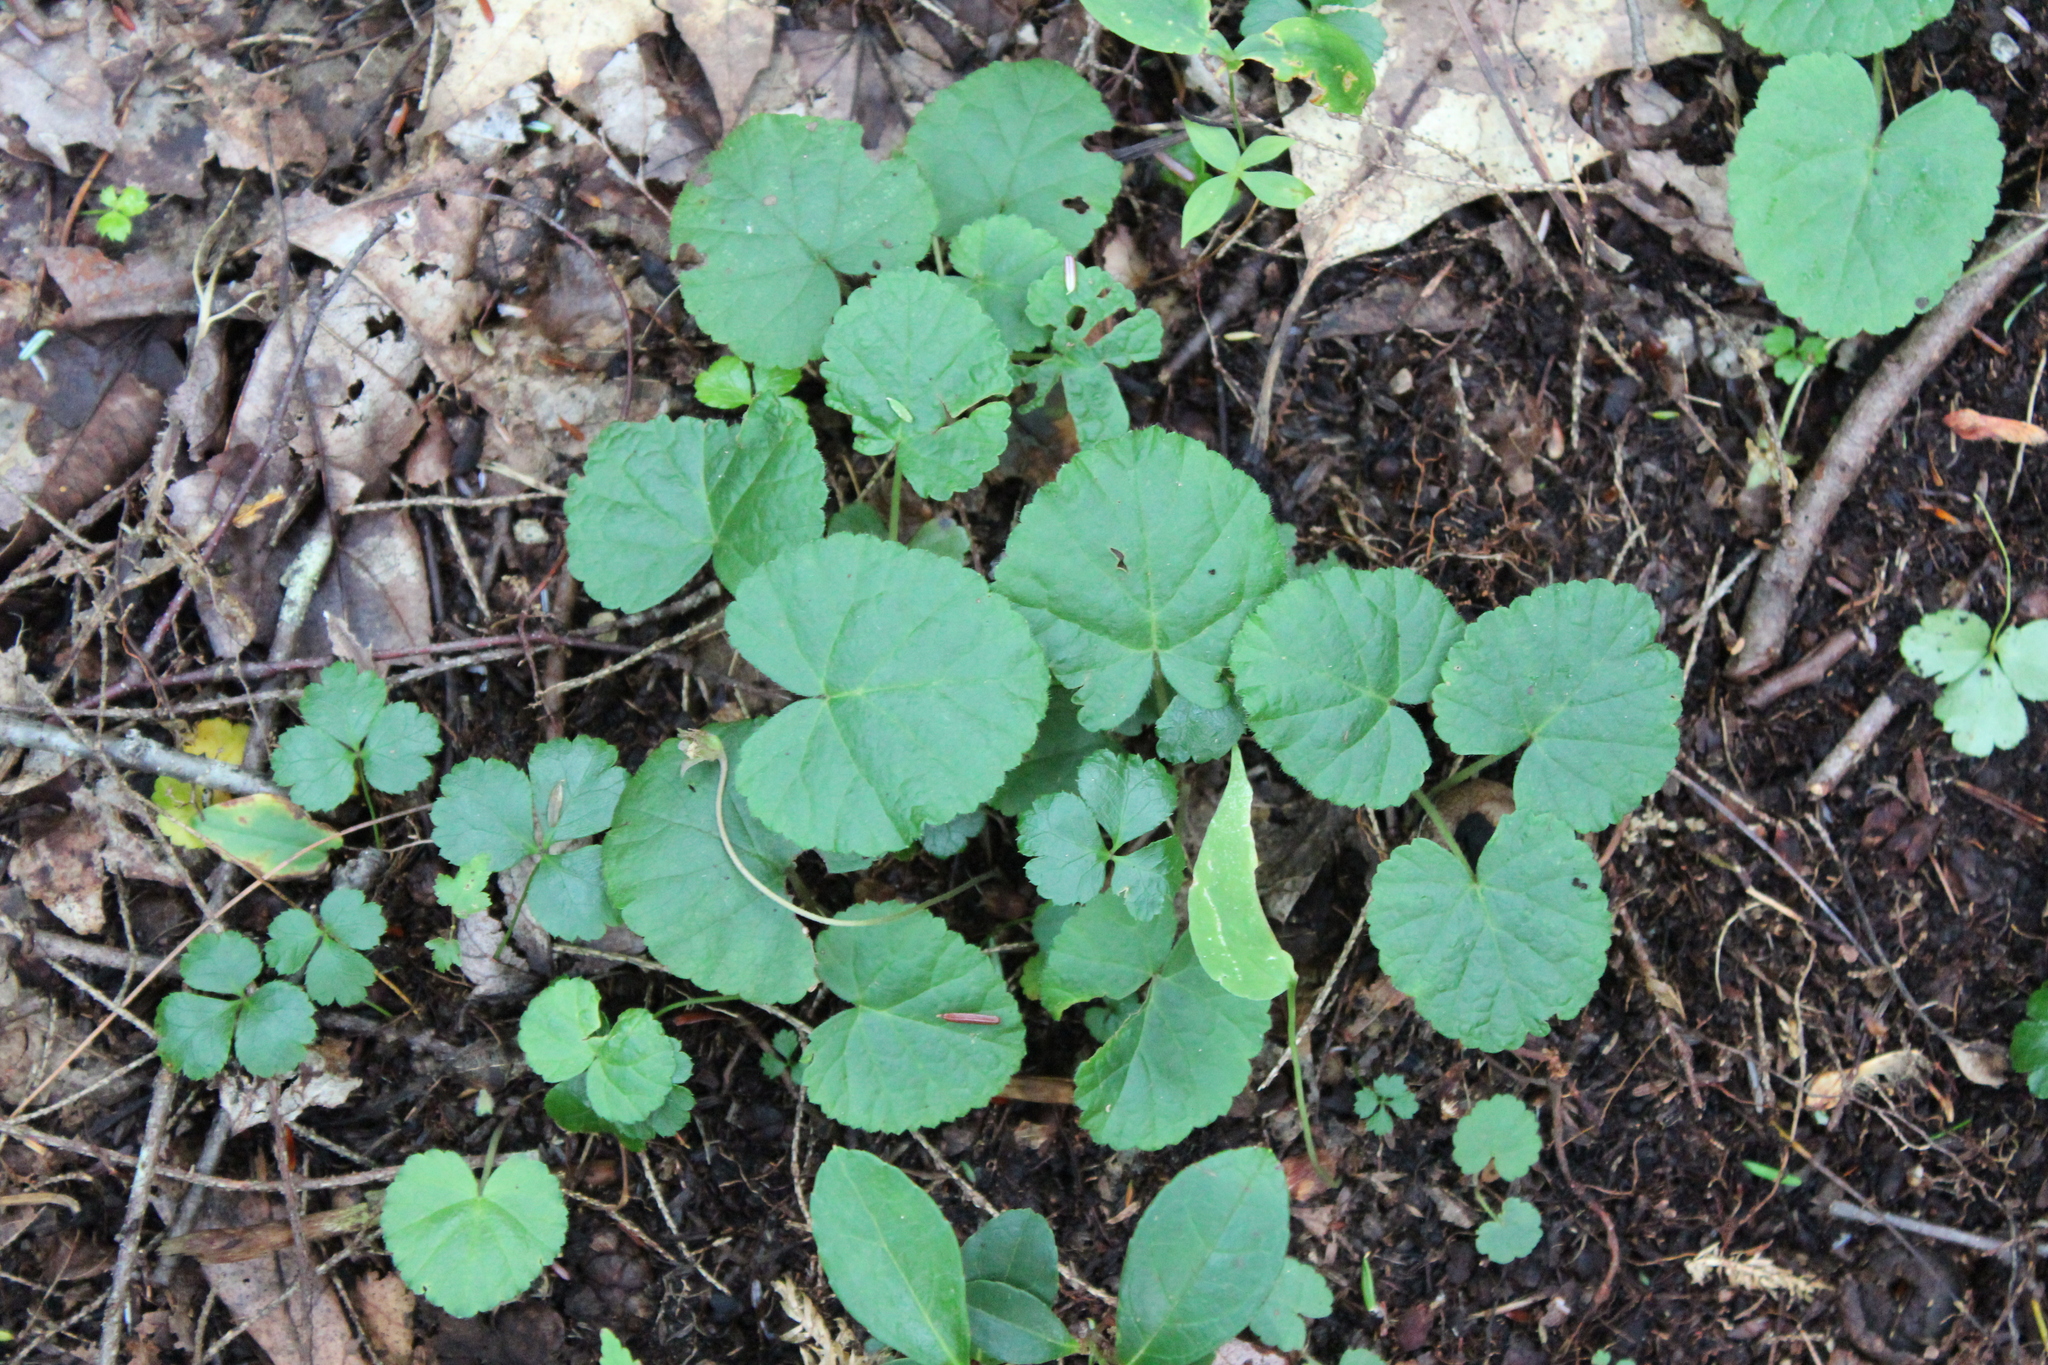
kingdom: Plantae
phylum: Tracheophyta
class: Magnoliopsida
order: Rosales
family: Rosaceae
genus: Dalibarda
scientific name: Dalibarda repens
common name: Dewdrop
